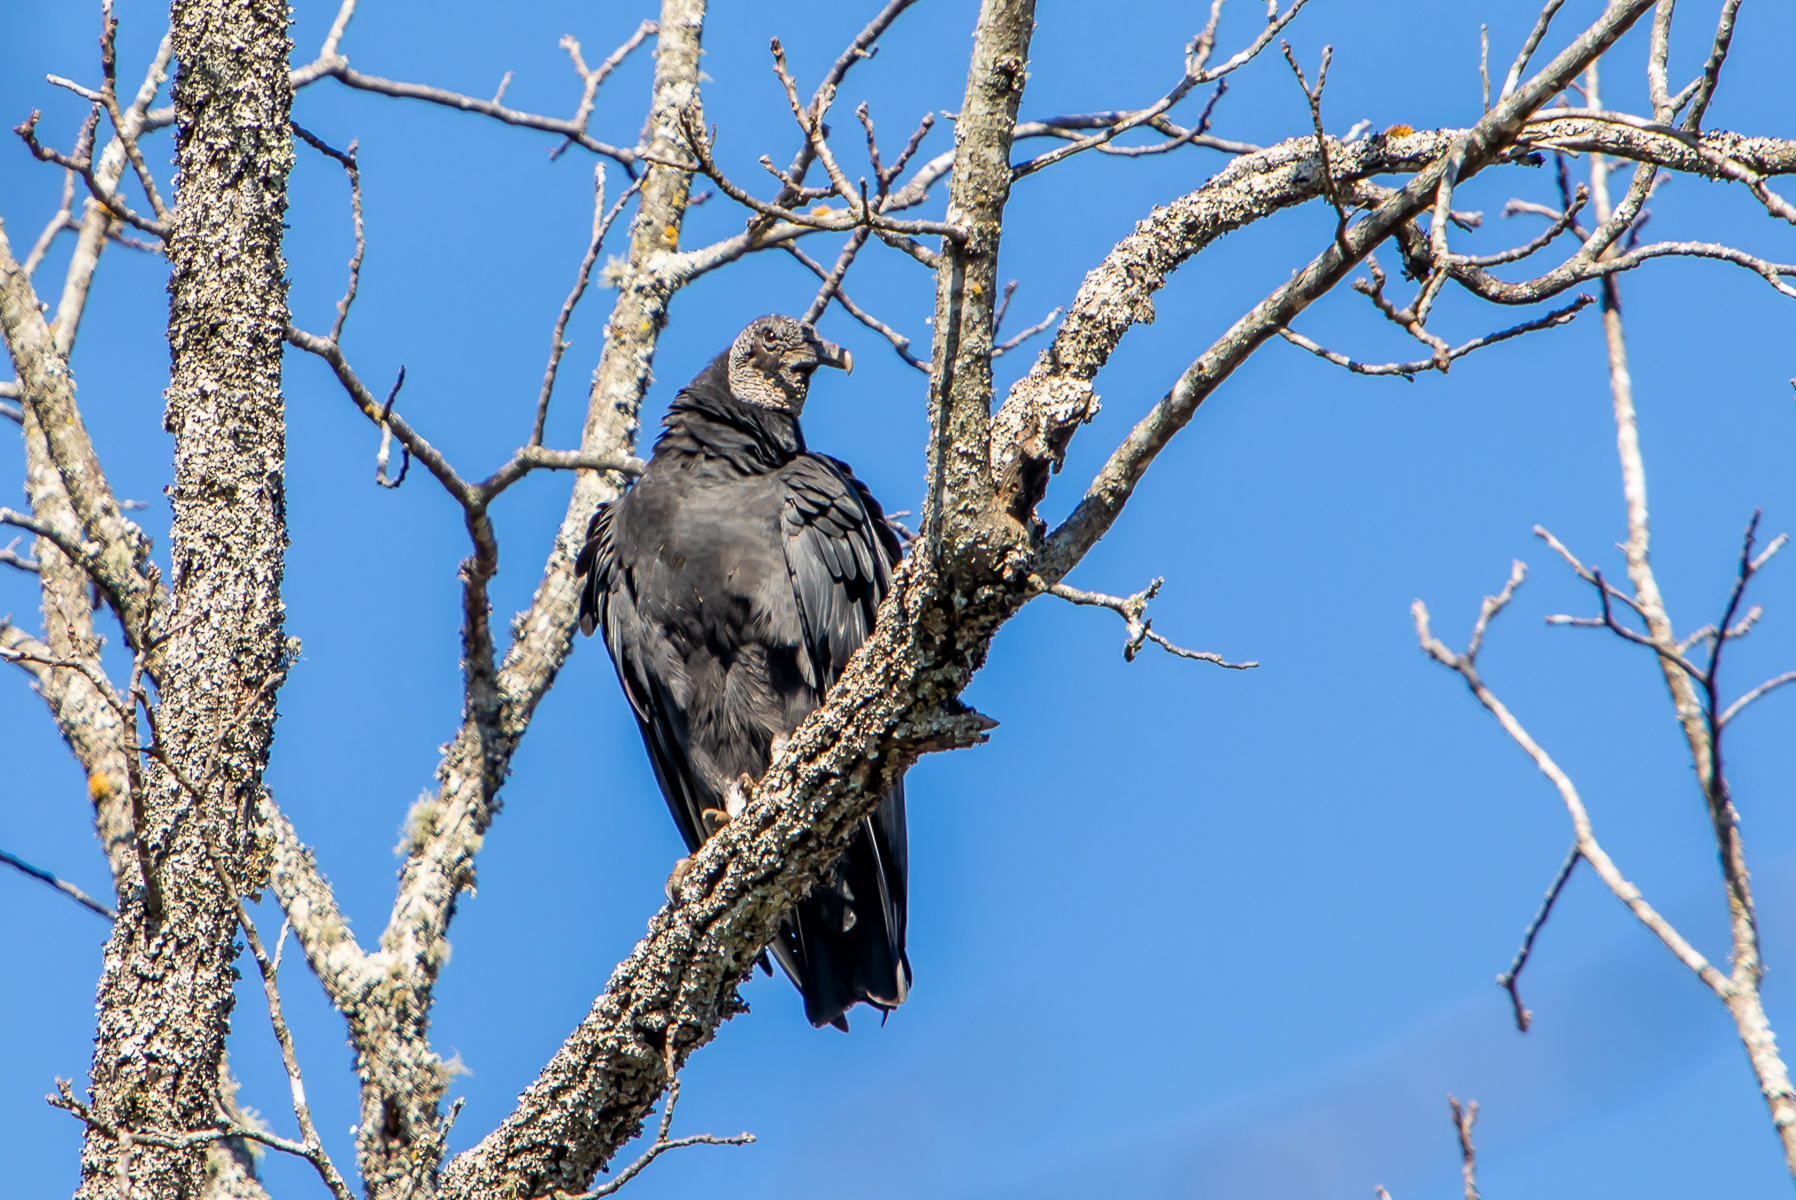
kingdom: Animalia
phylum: Chordata
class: Aves
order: Accipitriformes
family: Cathartidae
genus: Coragyps
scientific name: Coragyps atratus
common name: Black vulture
